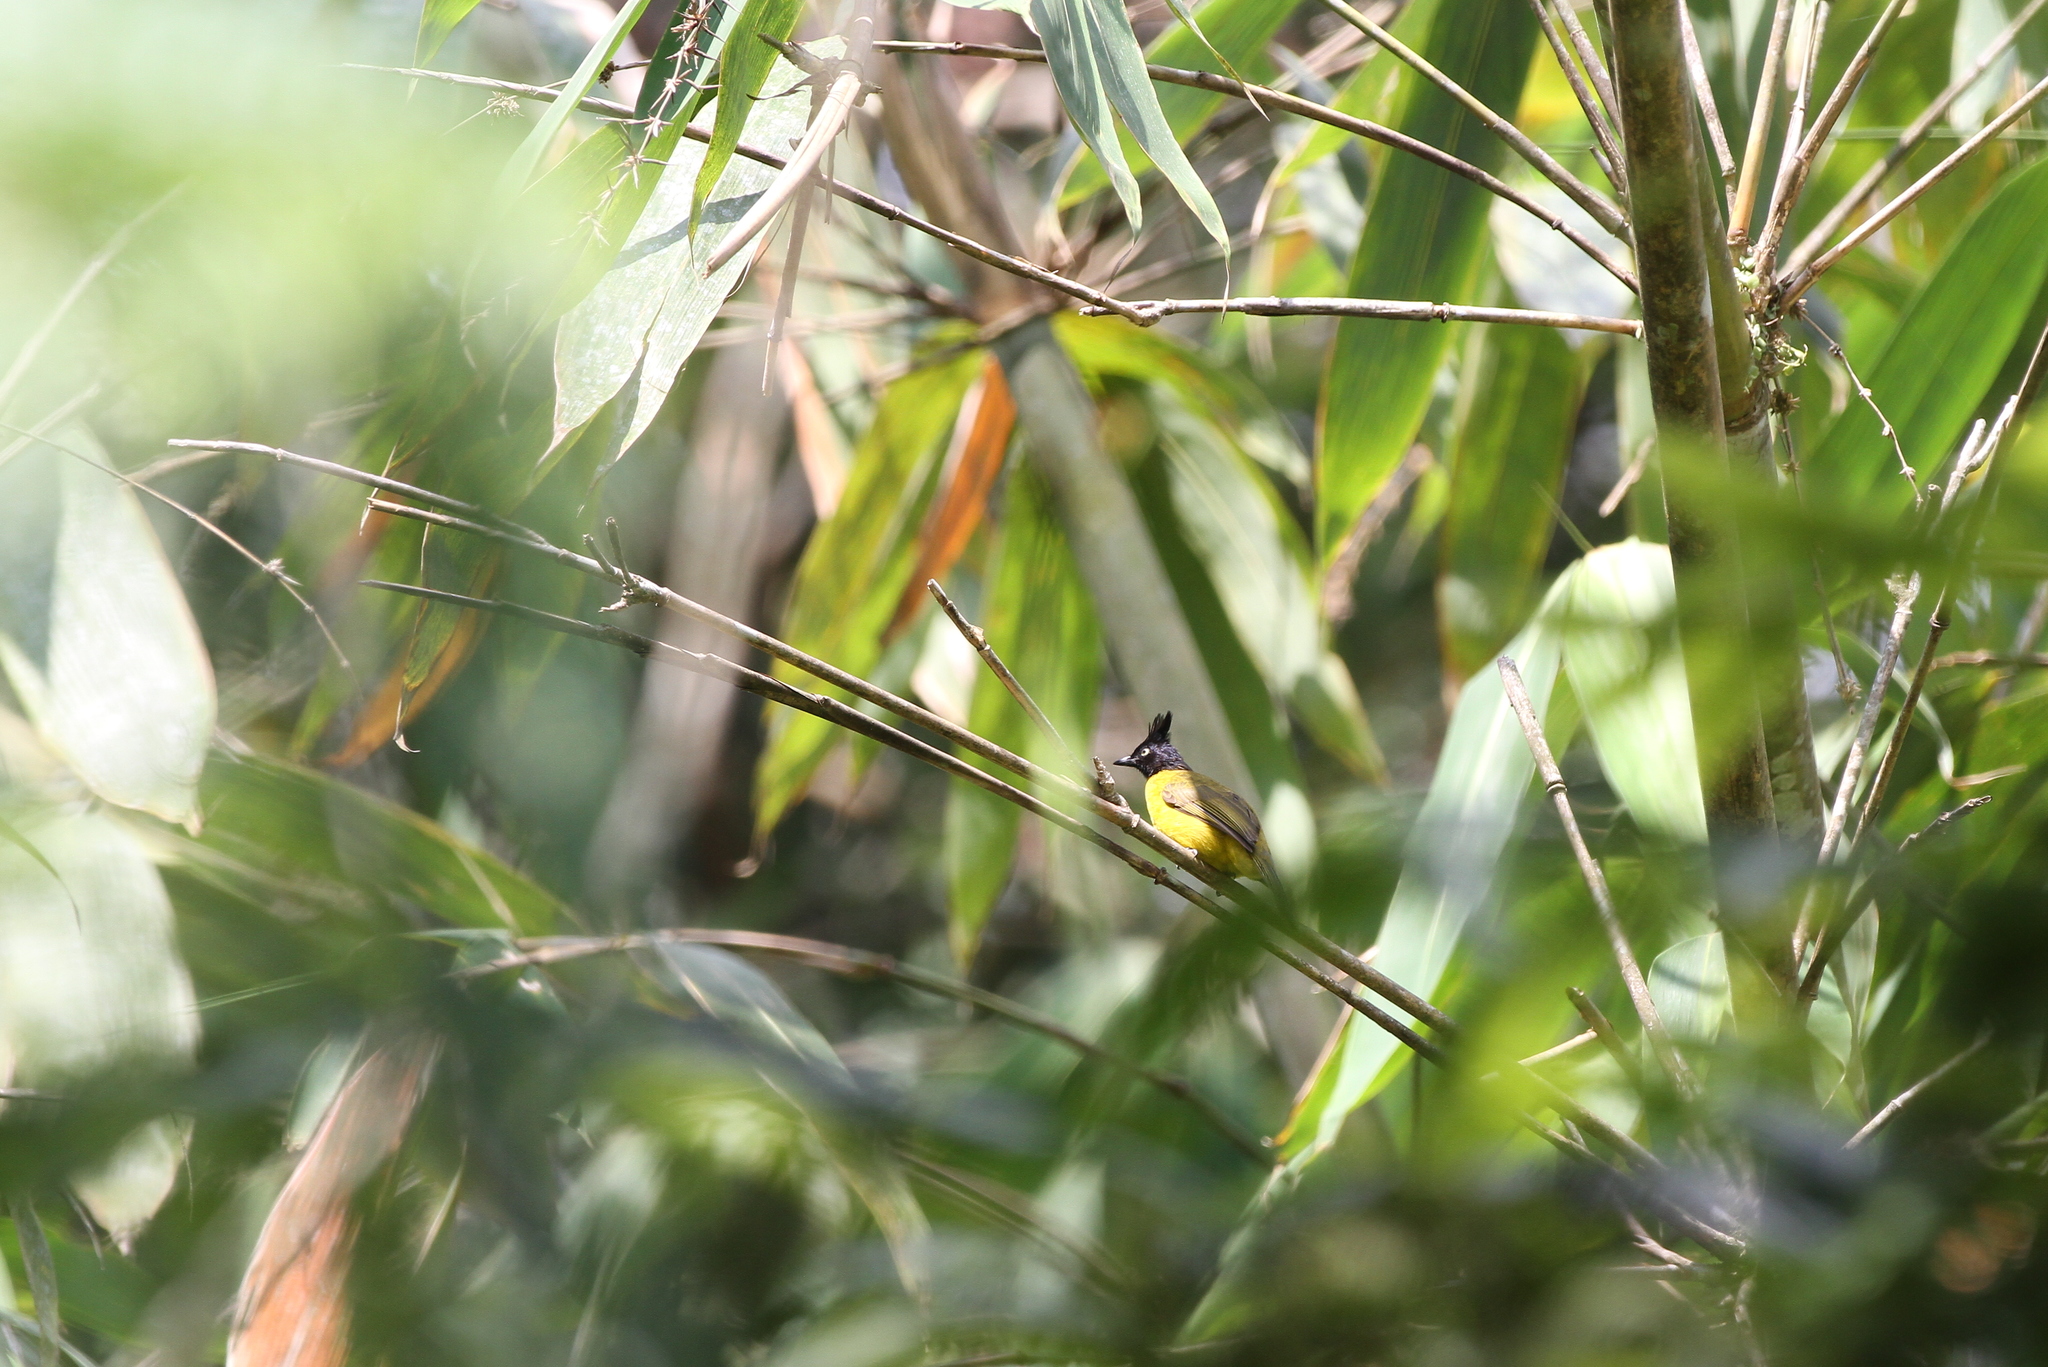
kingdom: Animalia
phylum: Chordata
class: Aves
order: Passeriformes
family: Pycnonotidae
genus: Pycnonotus
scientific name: Pycnonotus montis
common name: Bornean bulbul
